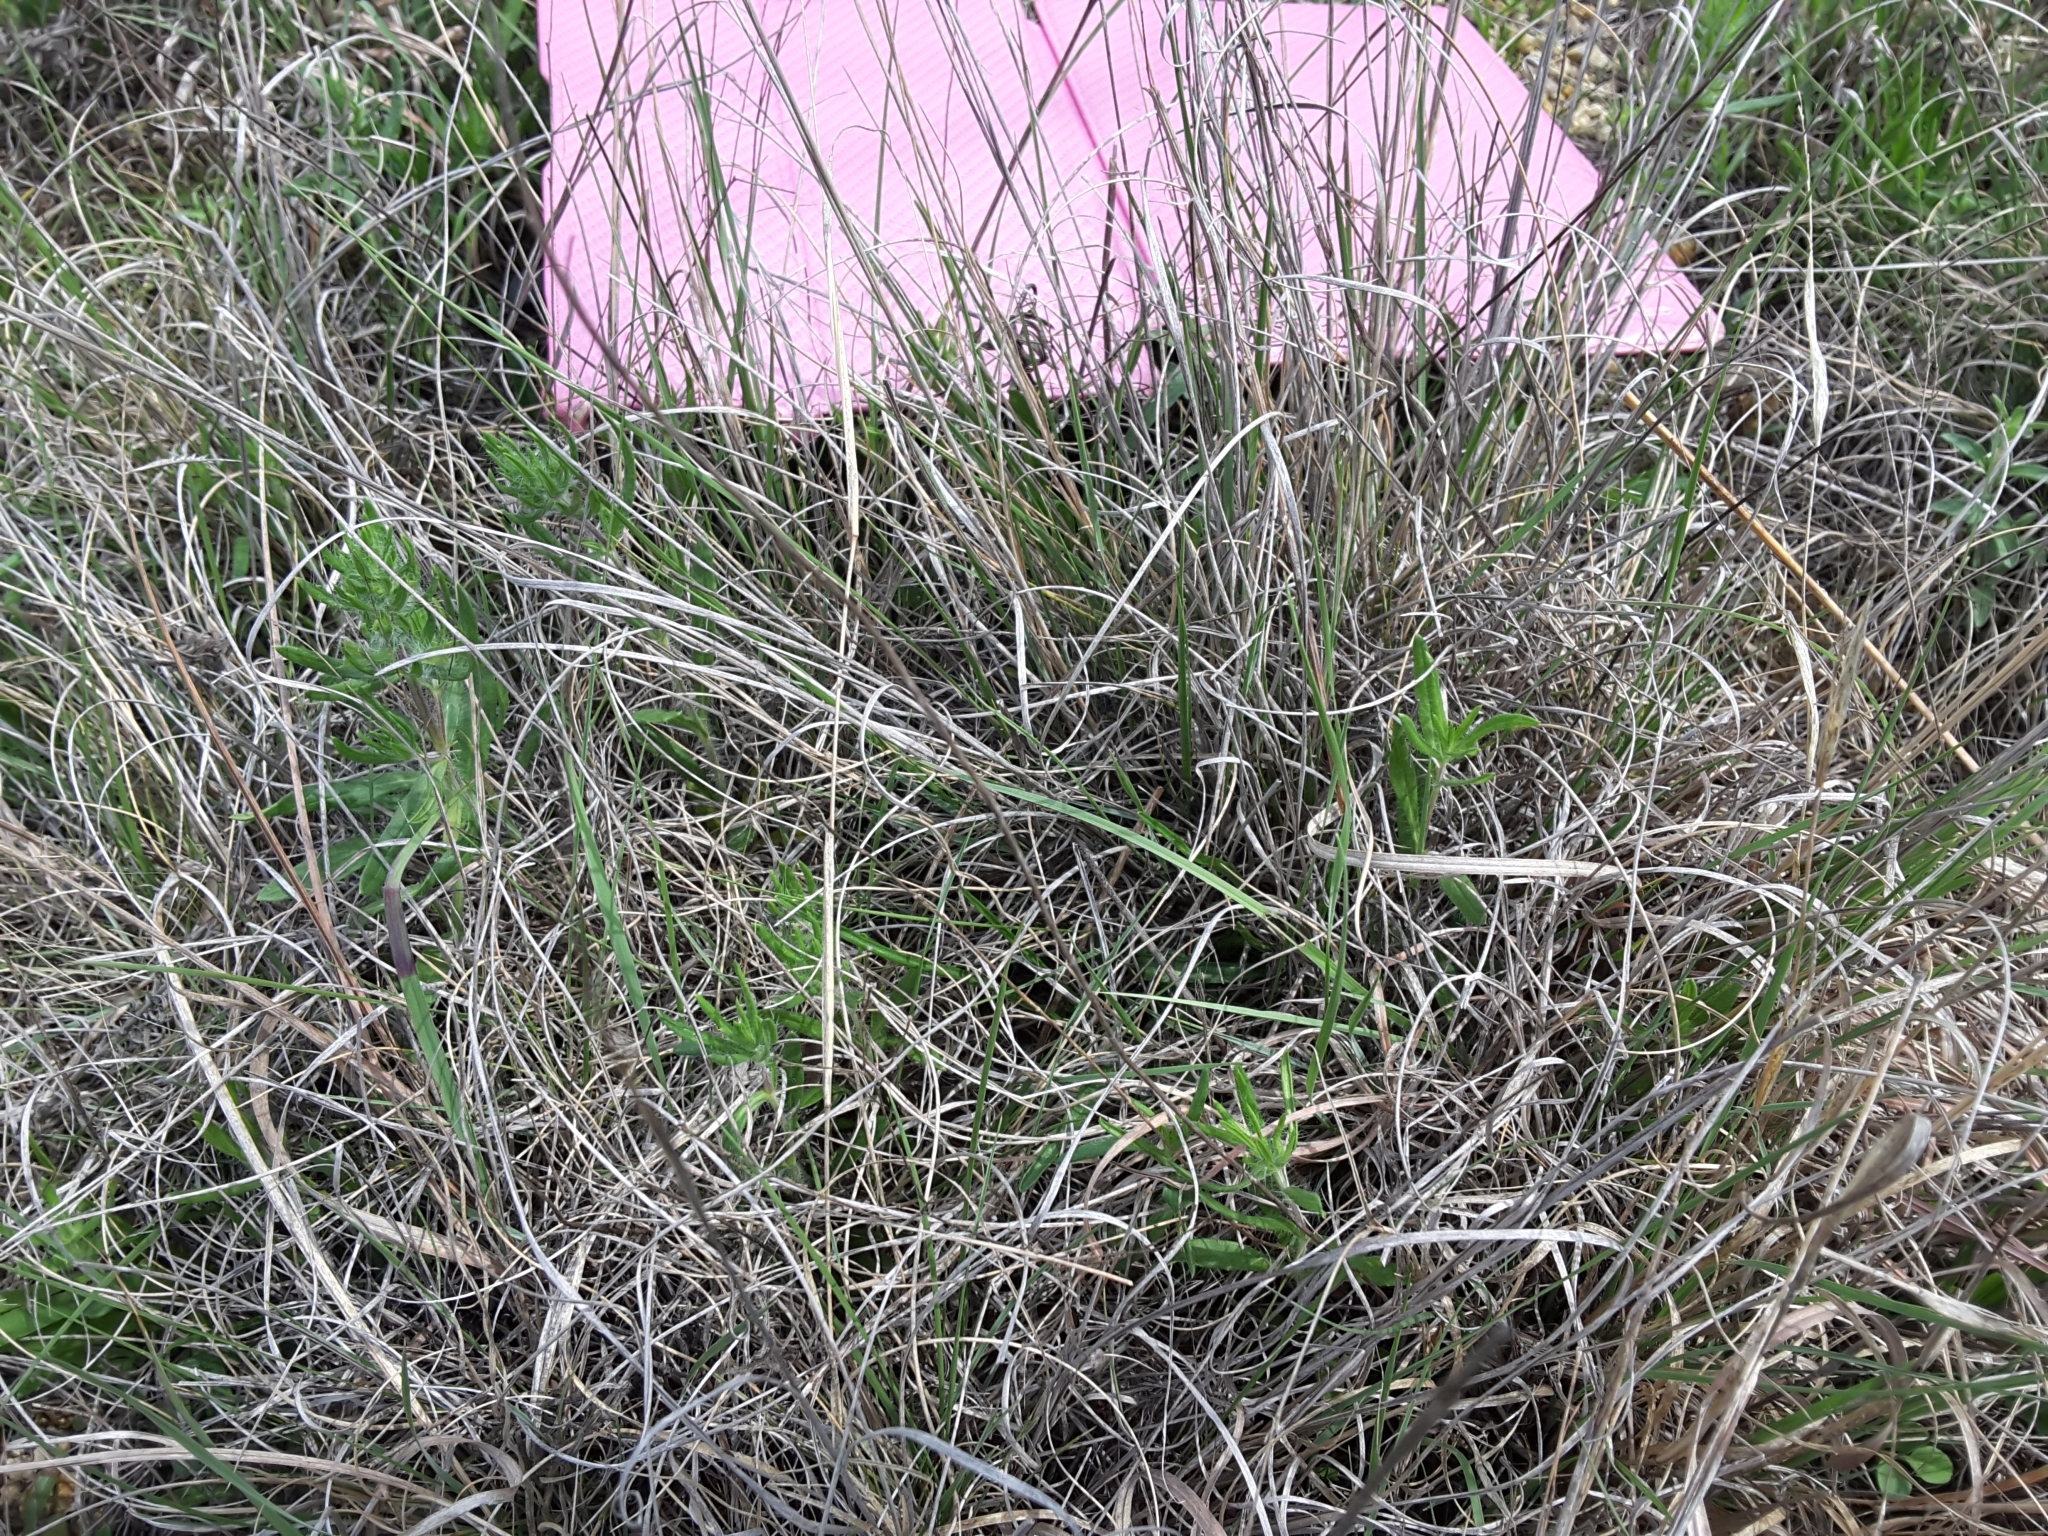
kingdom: Plantae
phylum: Tracheophyta
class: Liliopsida
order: Poales
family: Poaceae
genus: Muhlenbergia
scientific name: Muhlenbergia reverchonii
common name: Seep muhly
